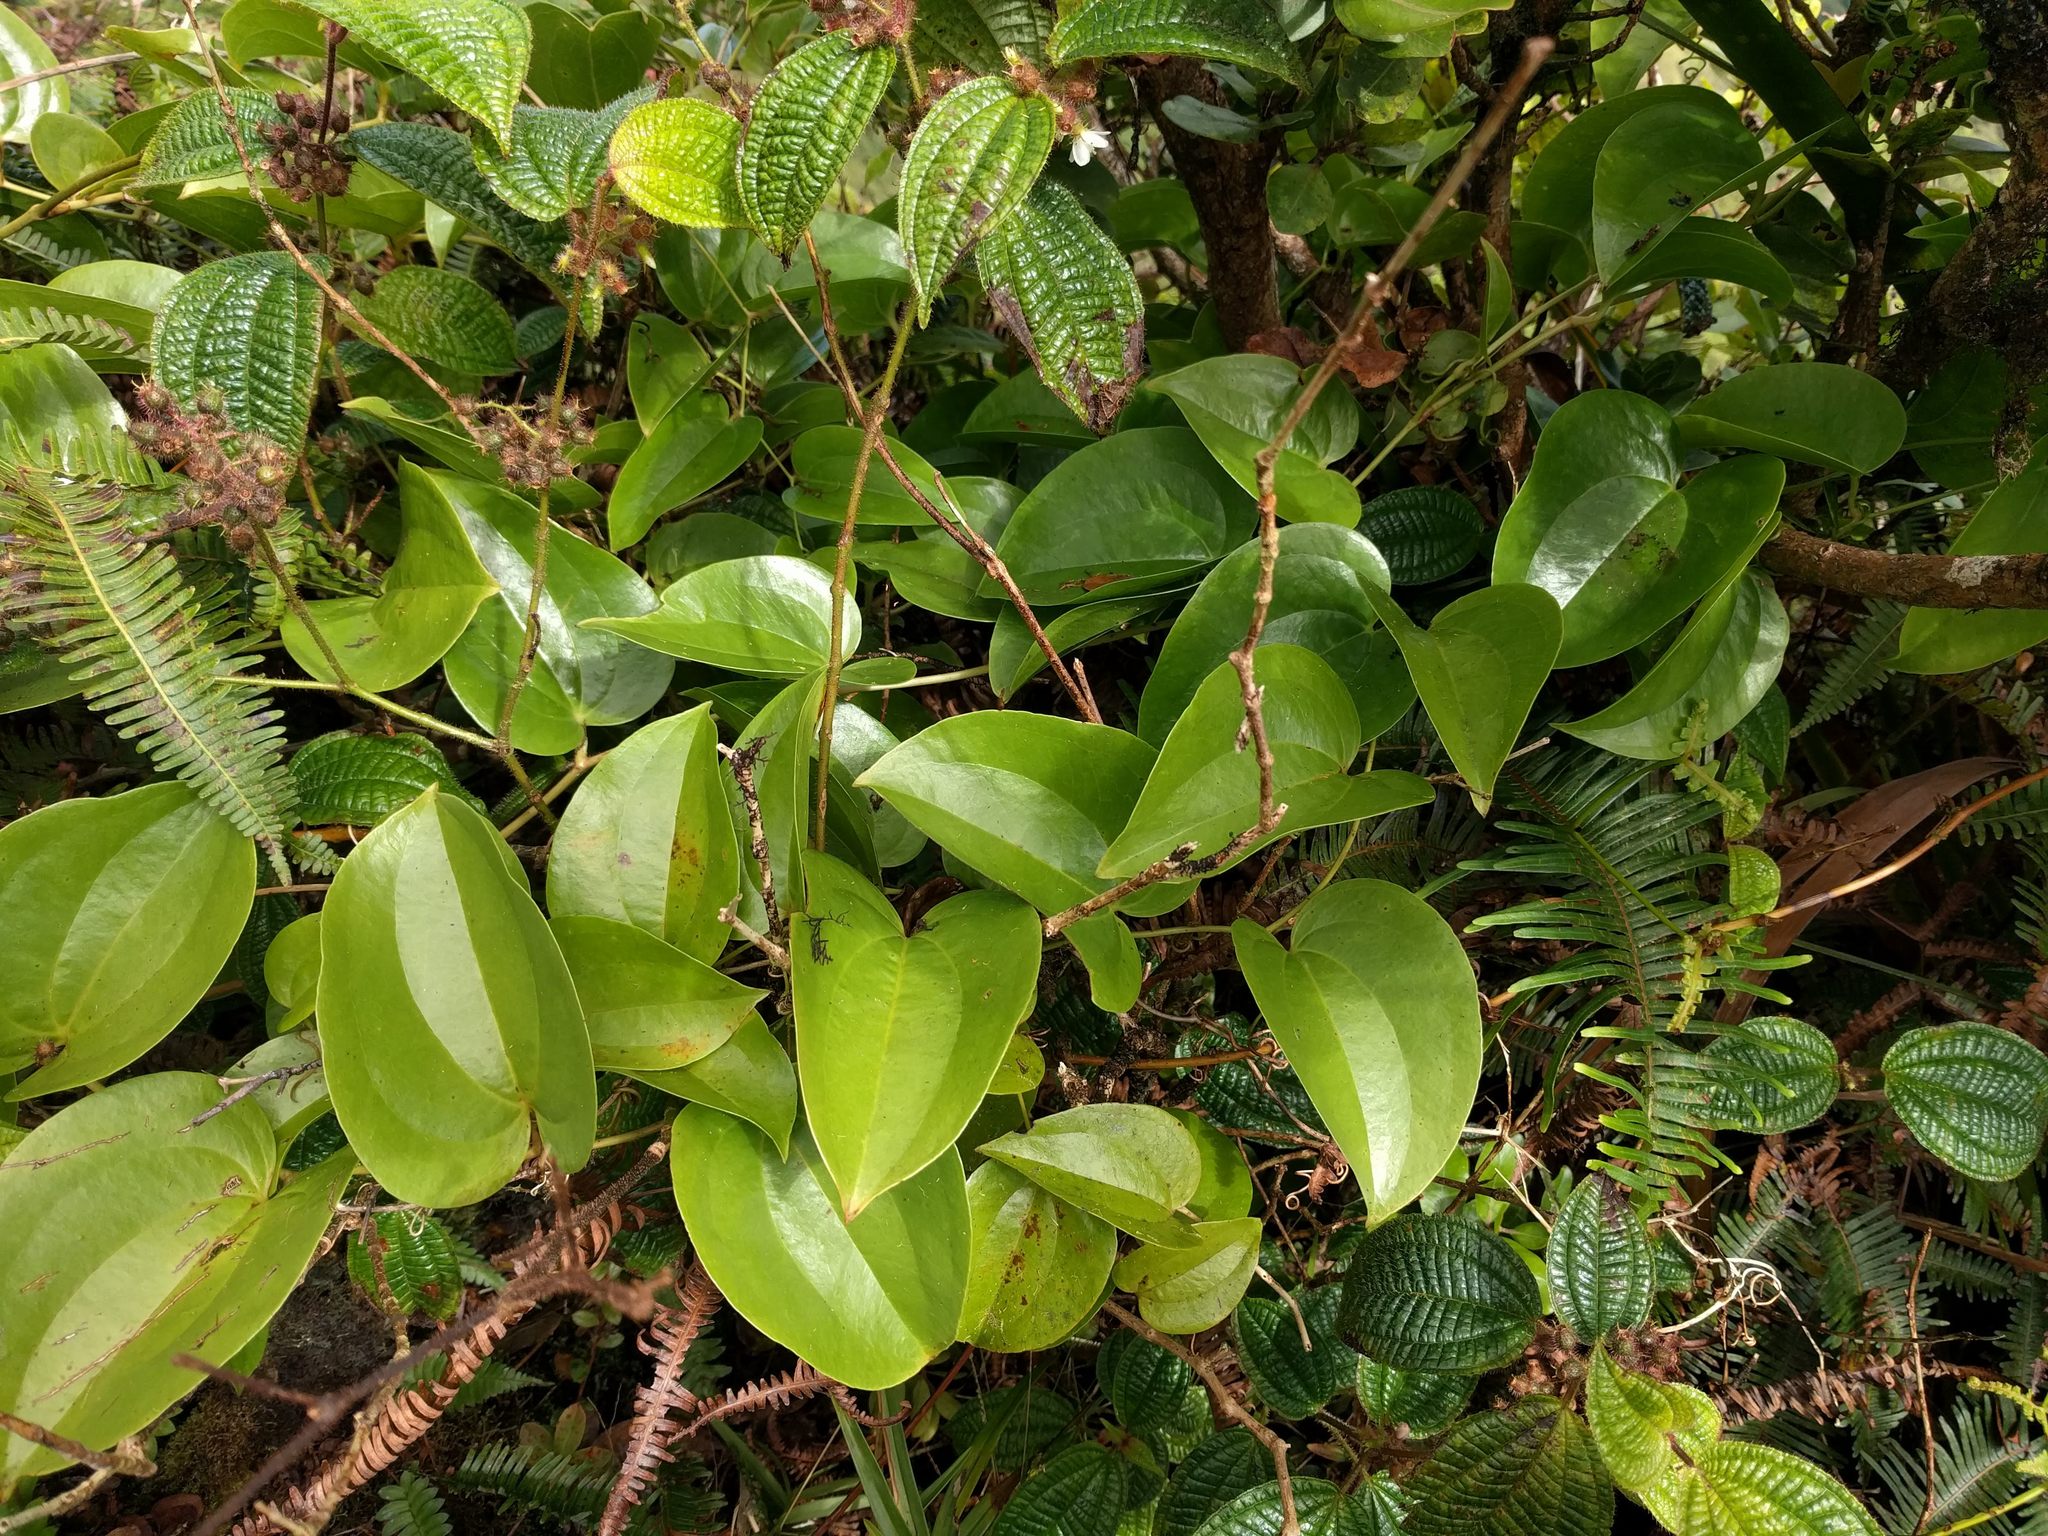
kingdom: Plantae
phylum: Tracheophyta
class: Liliopsida
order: Liliales
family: Smilacaceae
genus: Smilax
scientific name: Smilax melastomifolia
